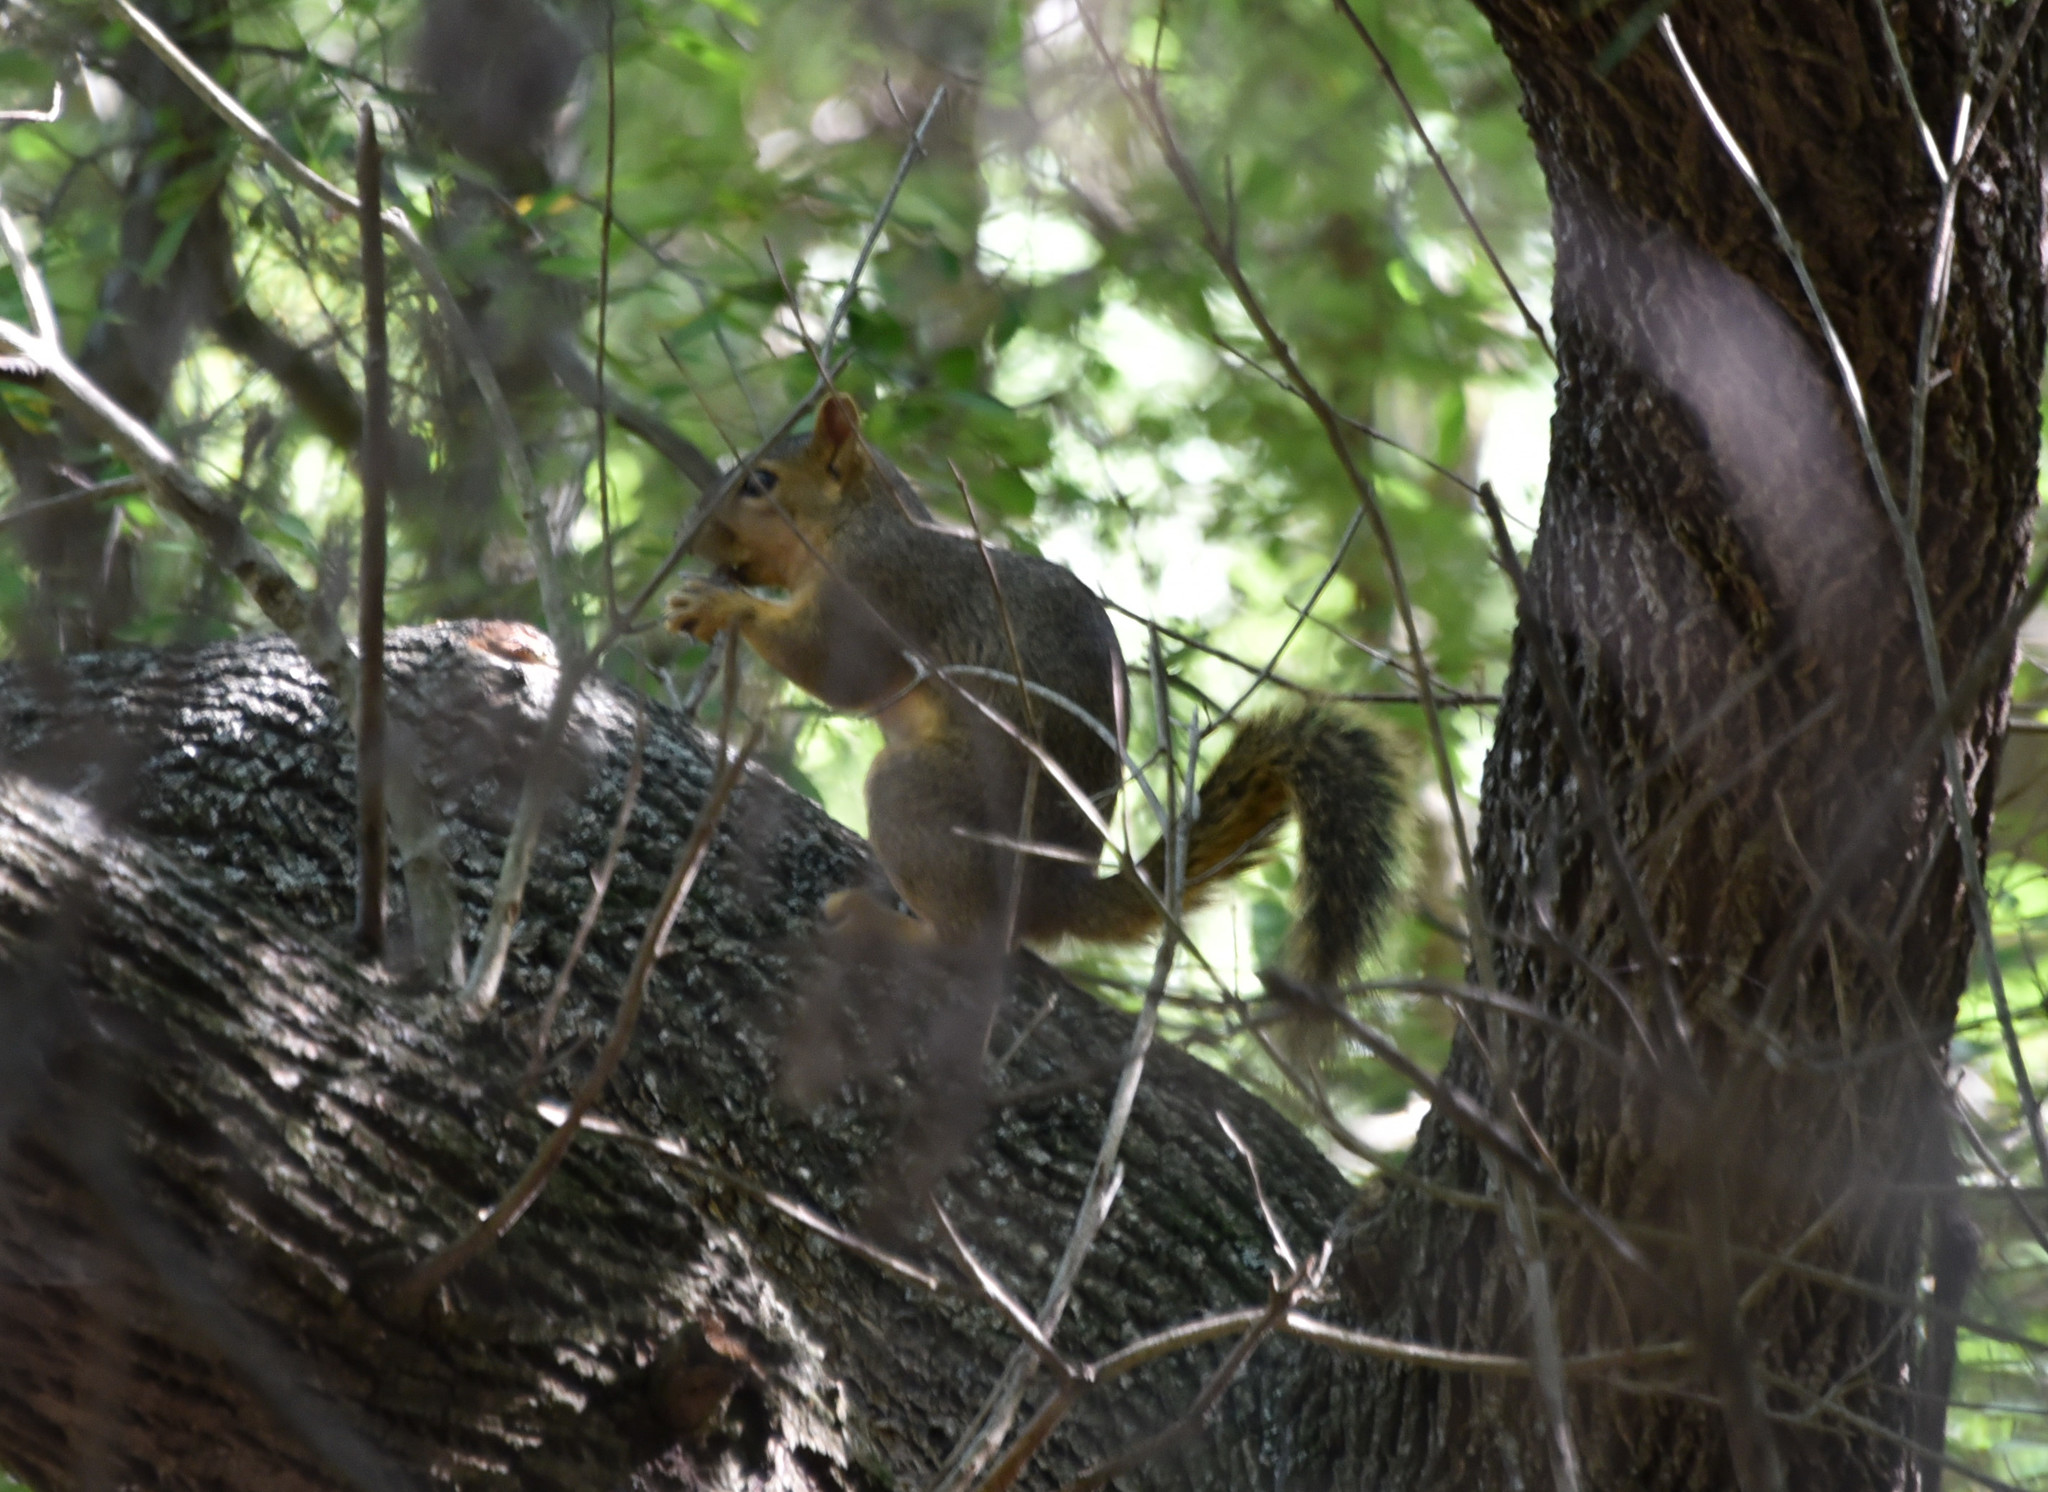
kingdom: Animalia
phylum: Chordata
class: Mammalia
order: Rodentia
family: Sciuridae
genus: Sciurus
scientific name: Sciurus niger
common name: Fox squirrel
